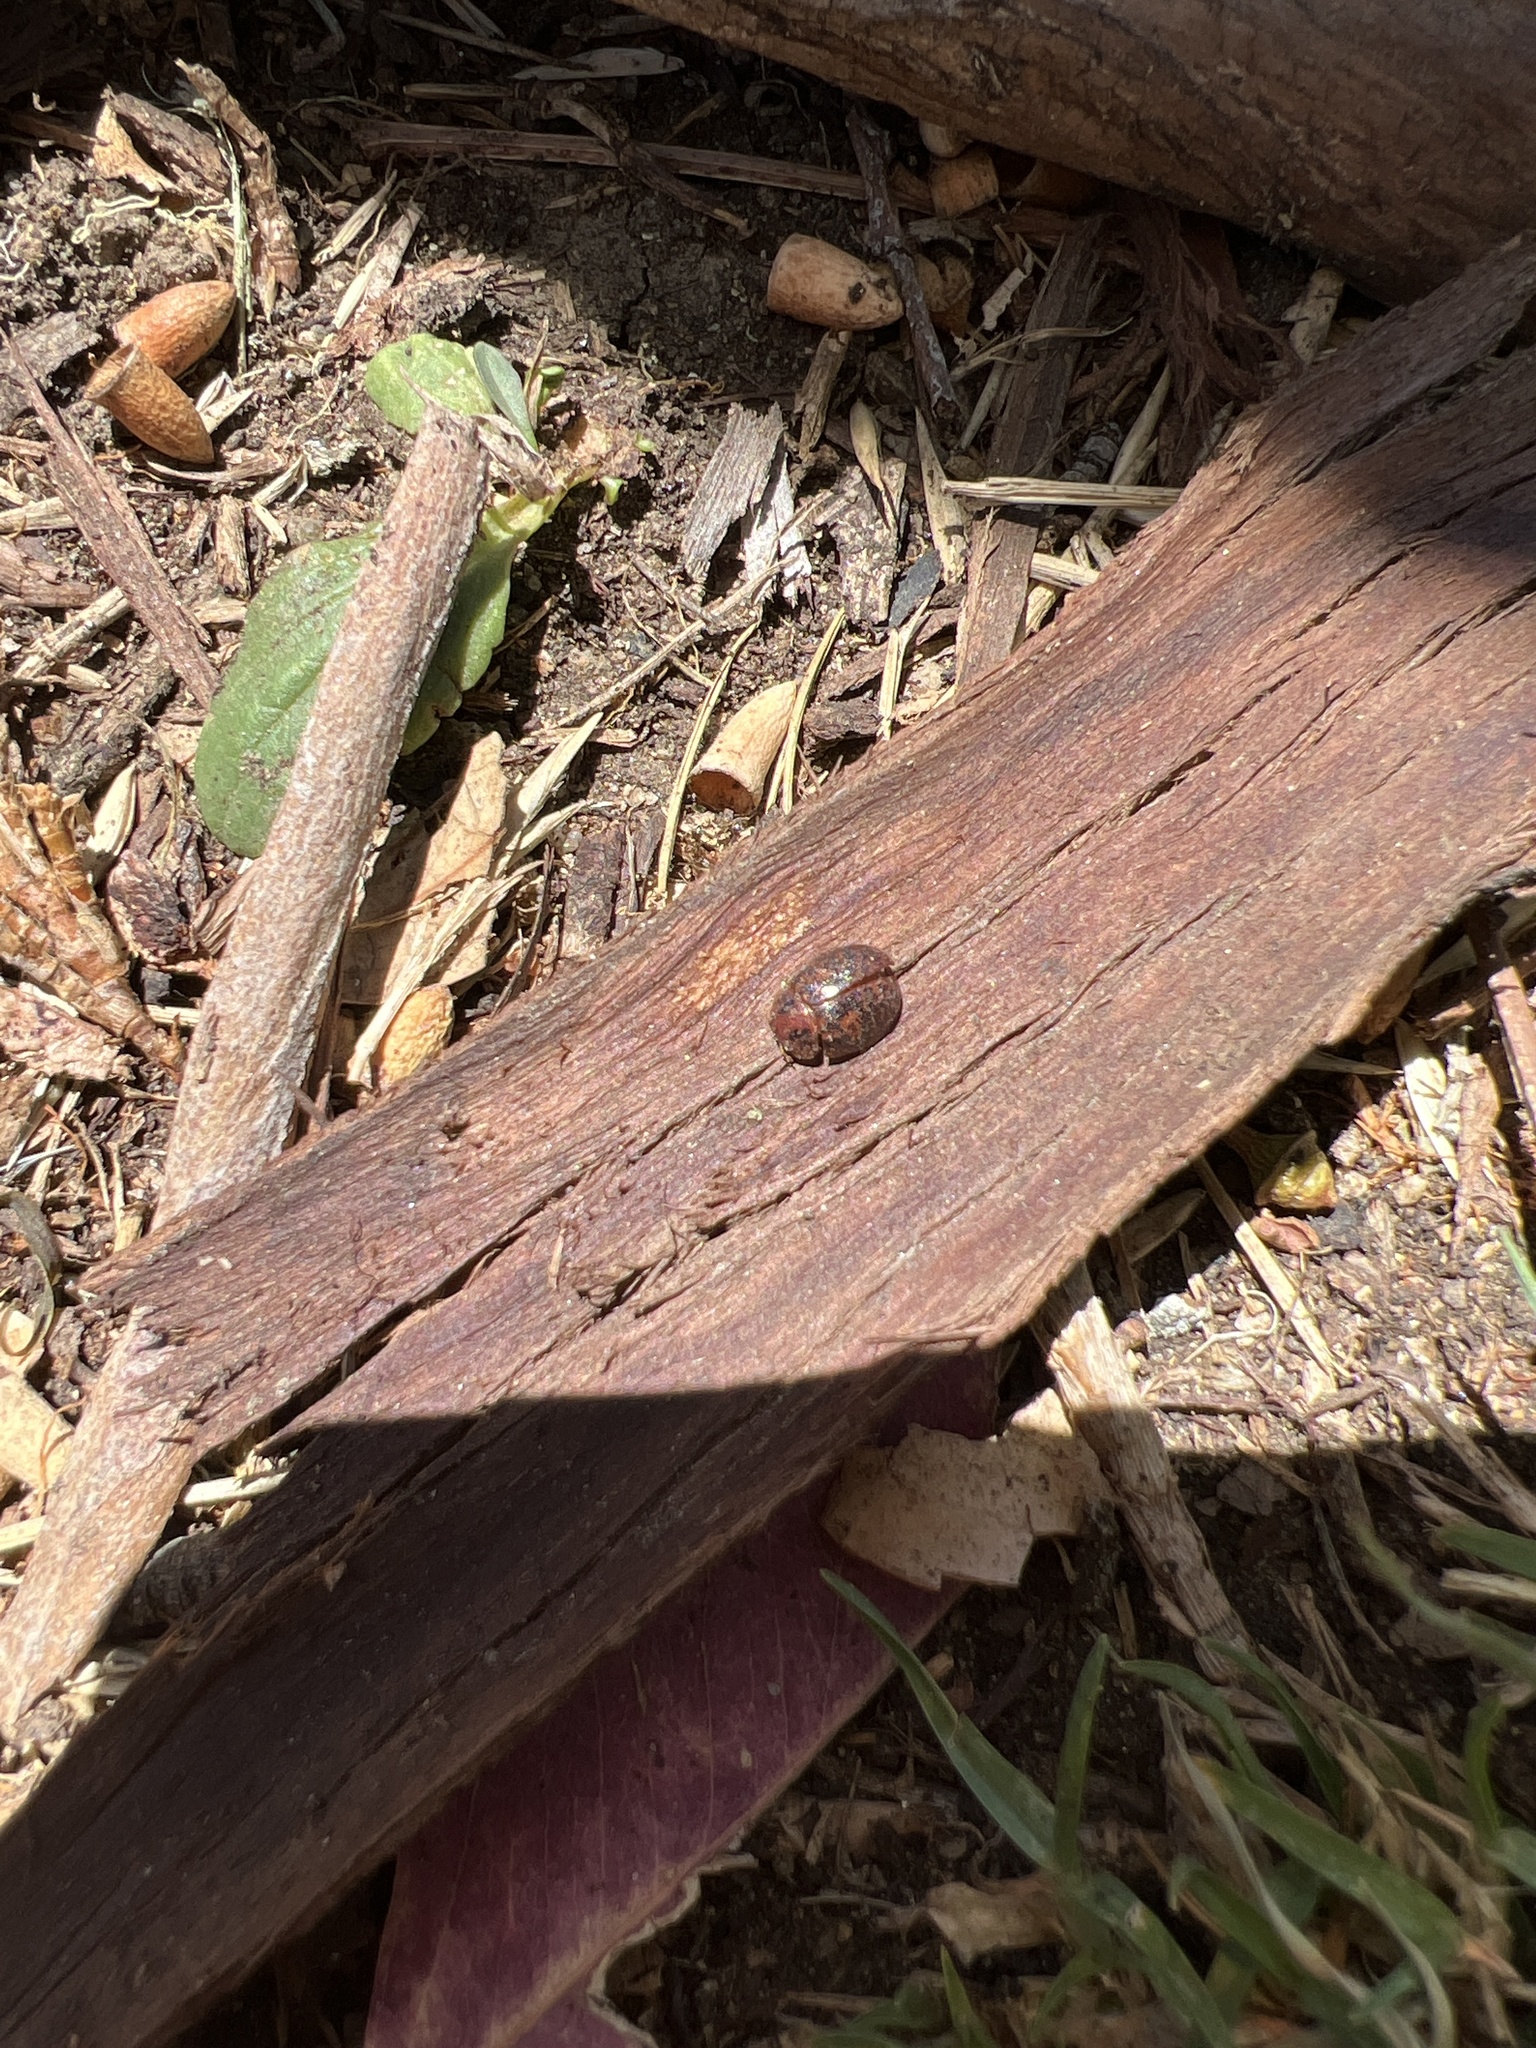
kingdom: Animalia
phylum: Arthropoda
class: Insecta
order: Coleoptera
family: Chrysomelidae
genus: Trachymela
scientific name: Trachymela sloanei
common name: Australian tortoise beetle
